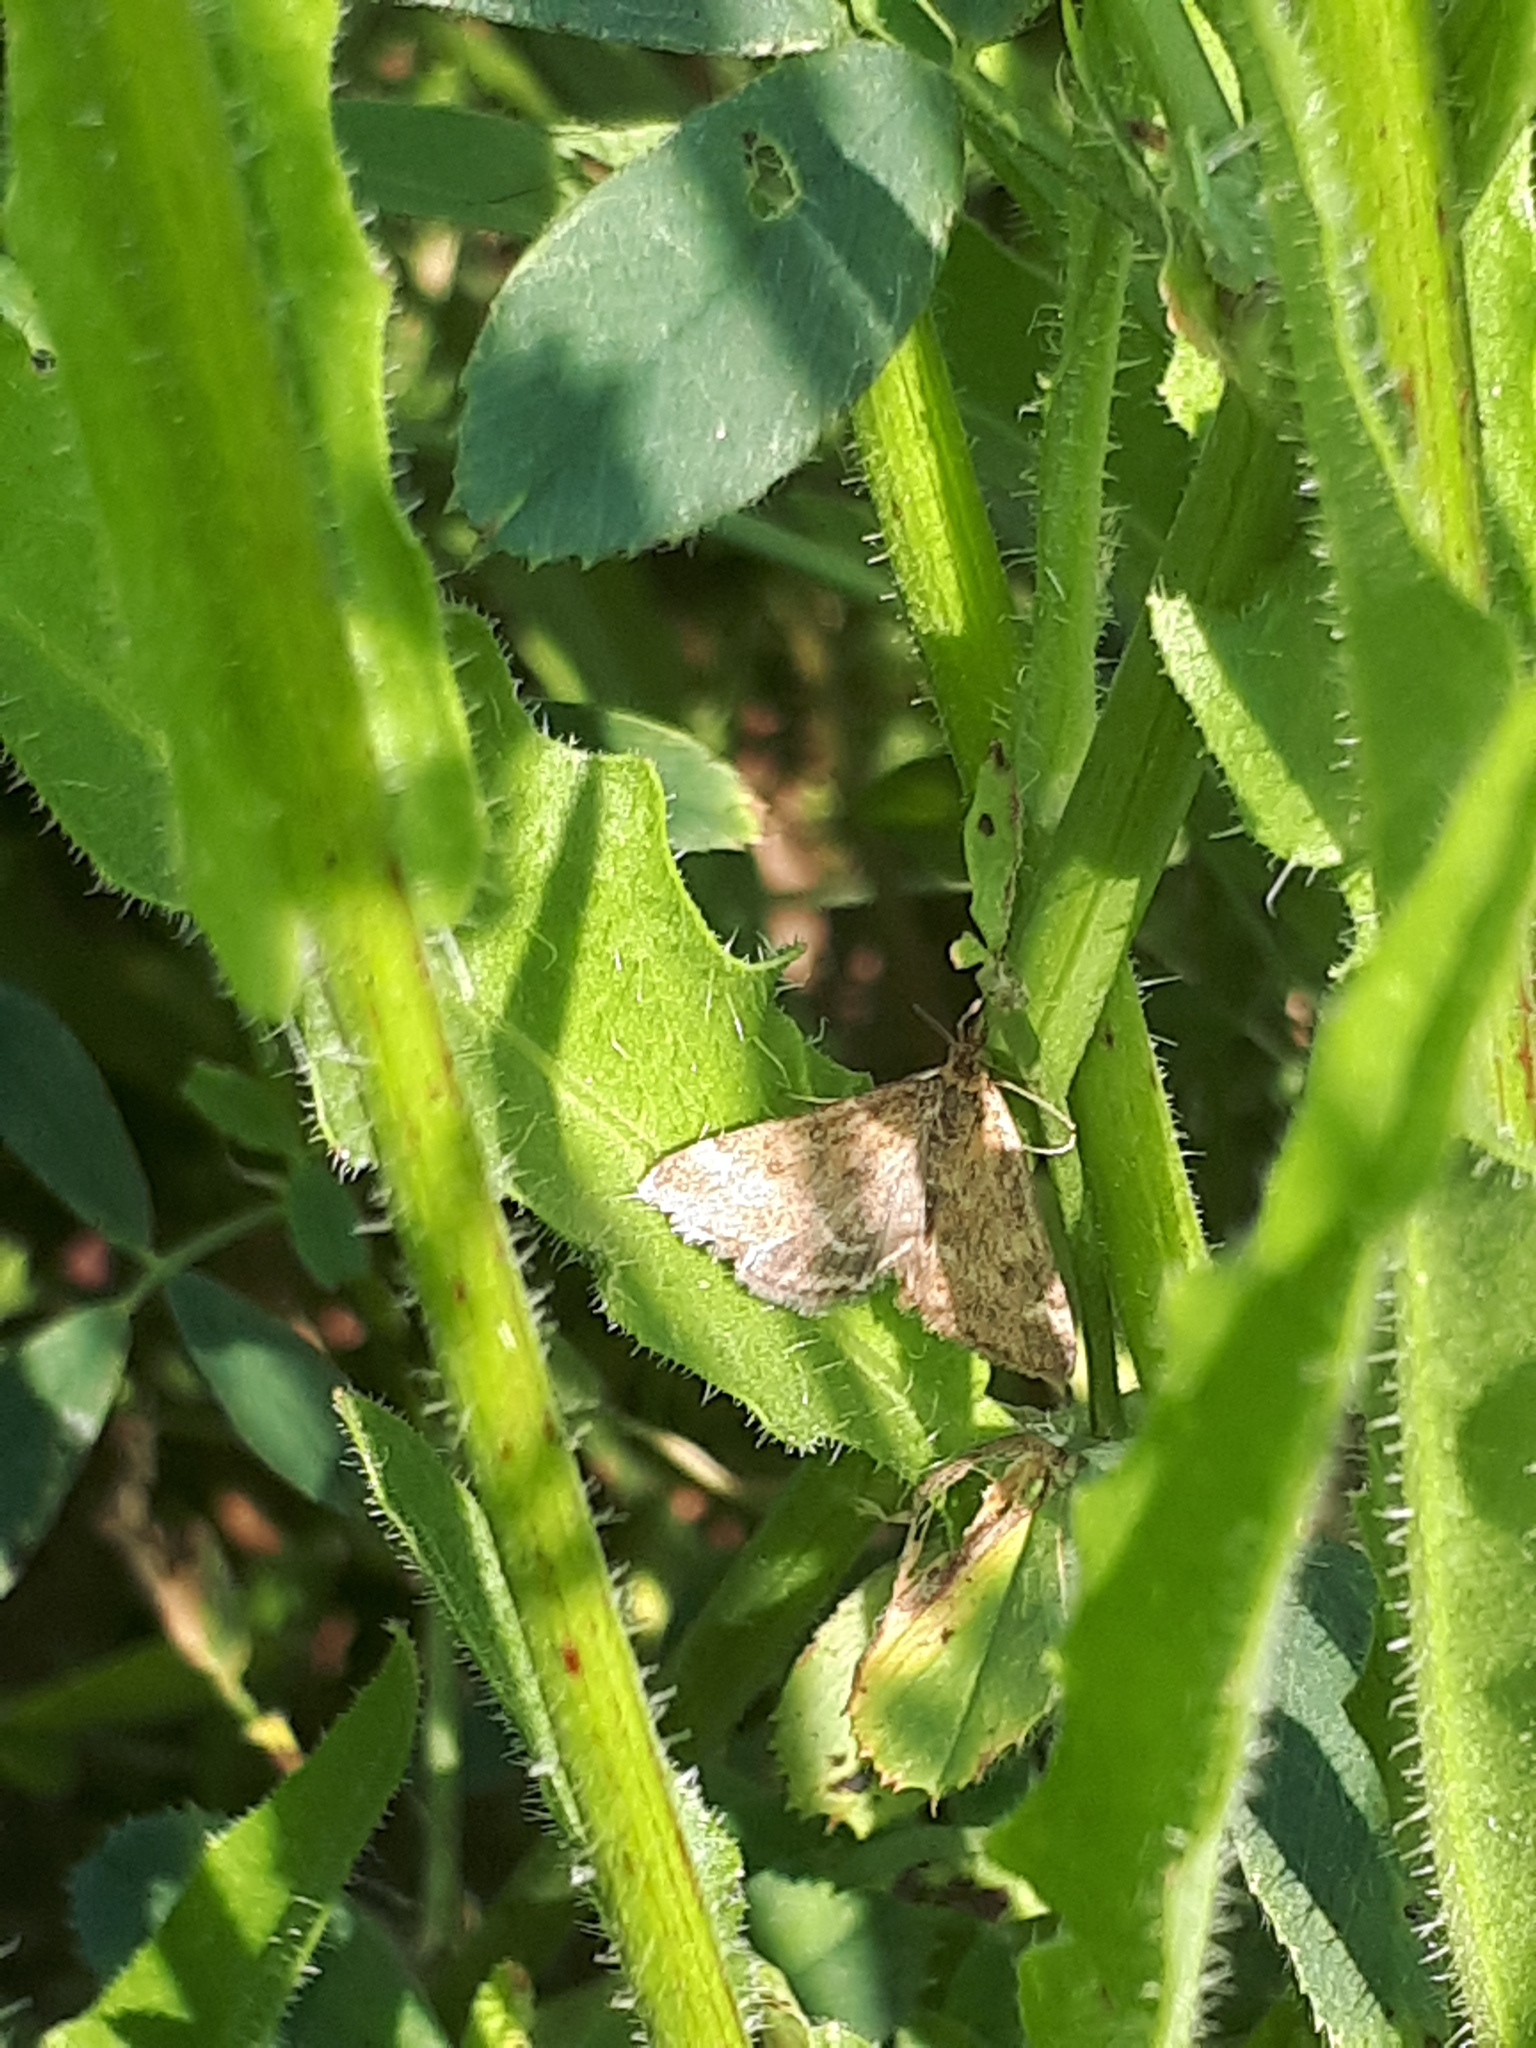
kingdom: Animalia
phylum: Arthropoda
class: Insecta
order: Lepidoptera
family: Crambidae
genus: Pyrausta
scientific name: Pyrausta despicata
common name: Straw-barred pearl
